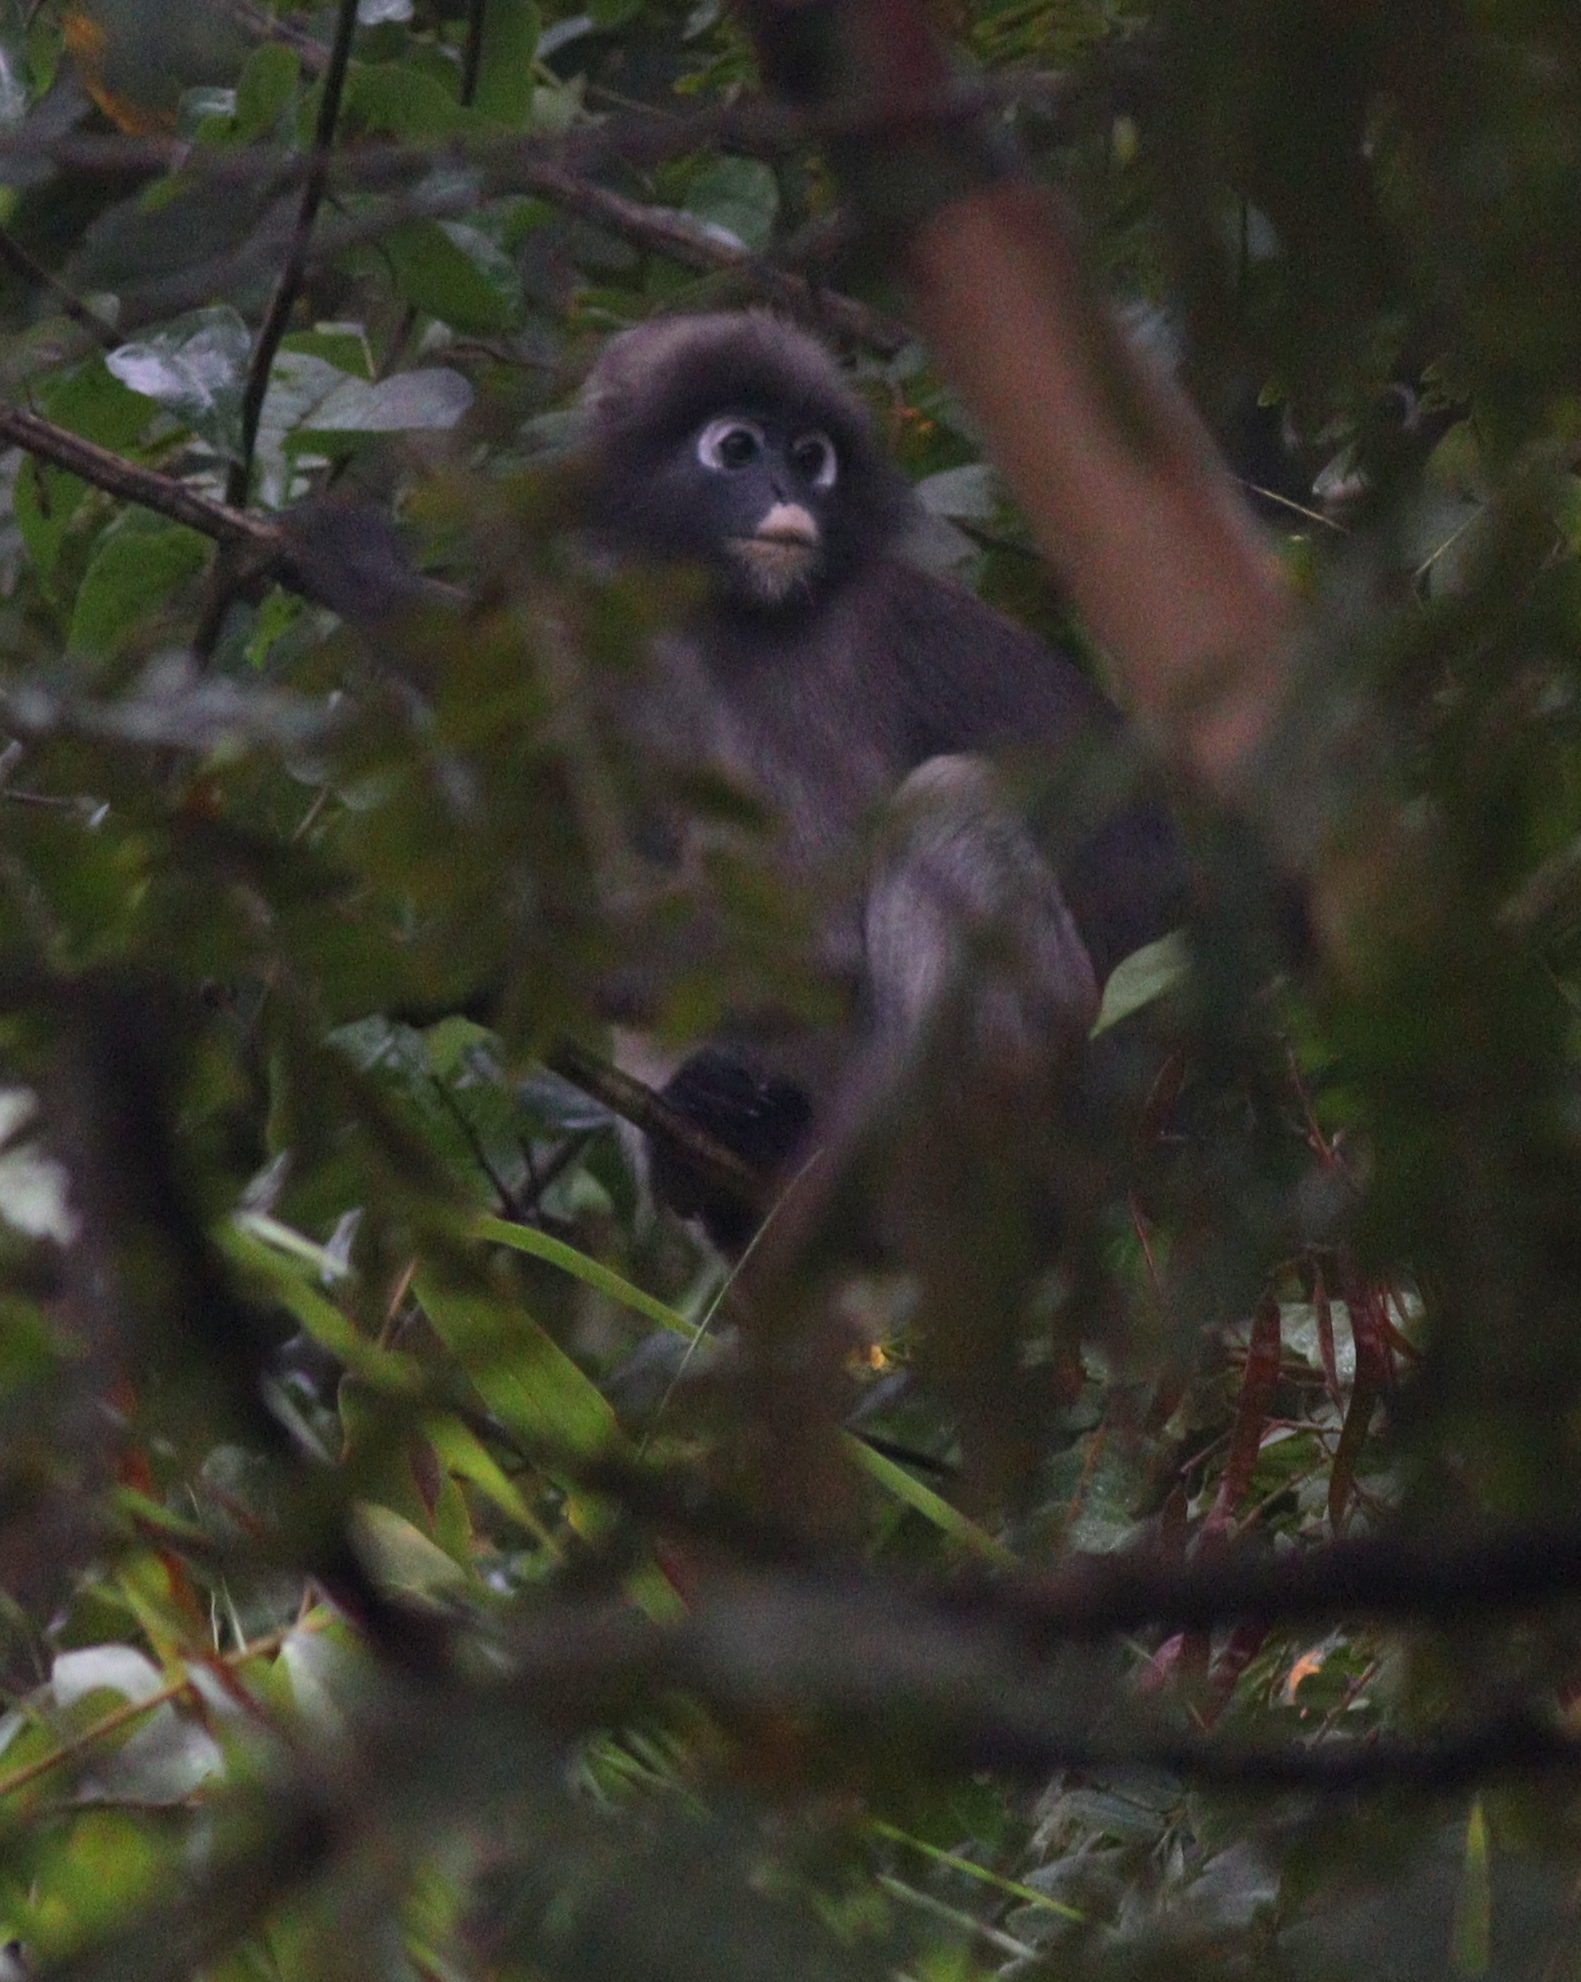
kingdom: Animalia
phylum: Chordata
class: Mammalia
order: Primates
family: Cercopithecidae
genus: Trachypithecus
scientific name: Trachypithecus obscurus
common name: Dusky leaf-monkey
